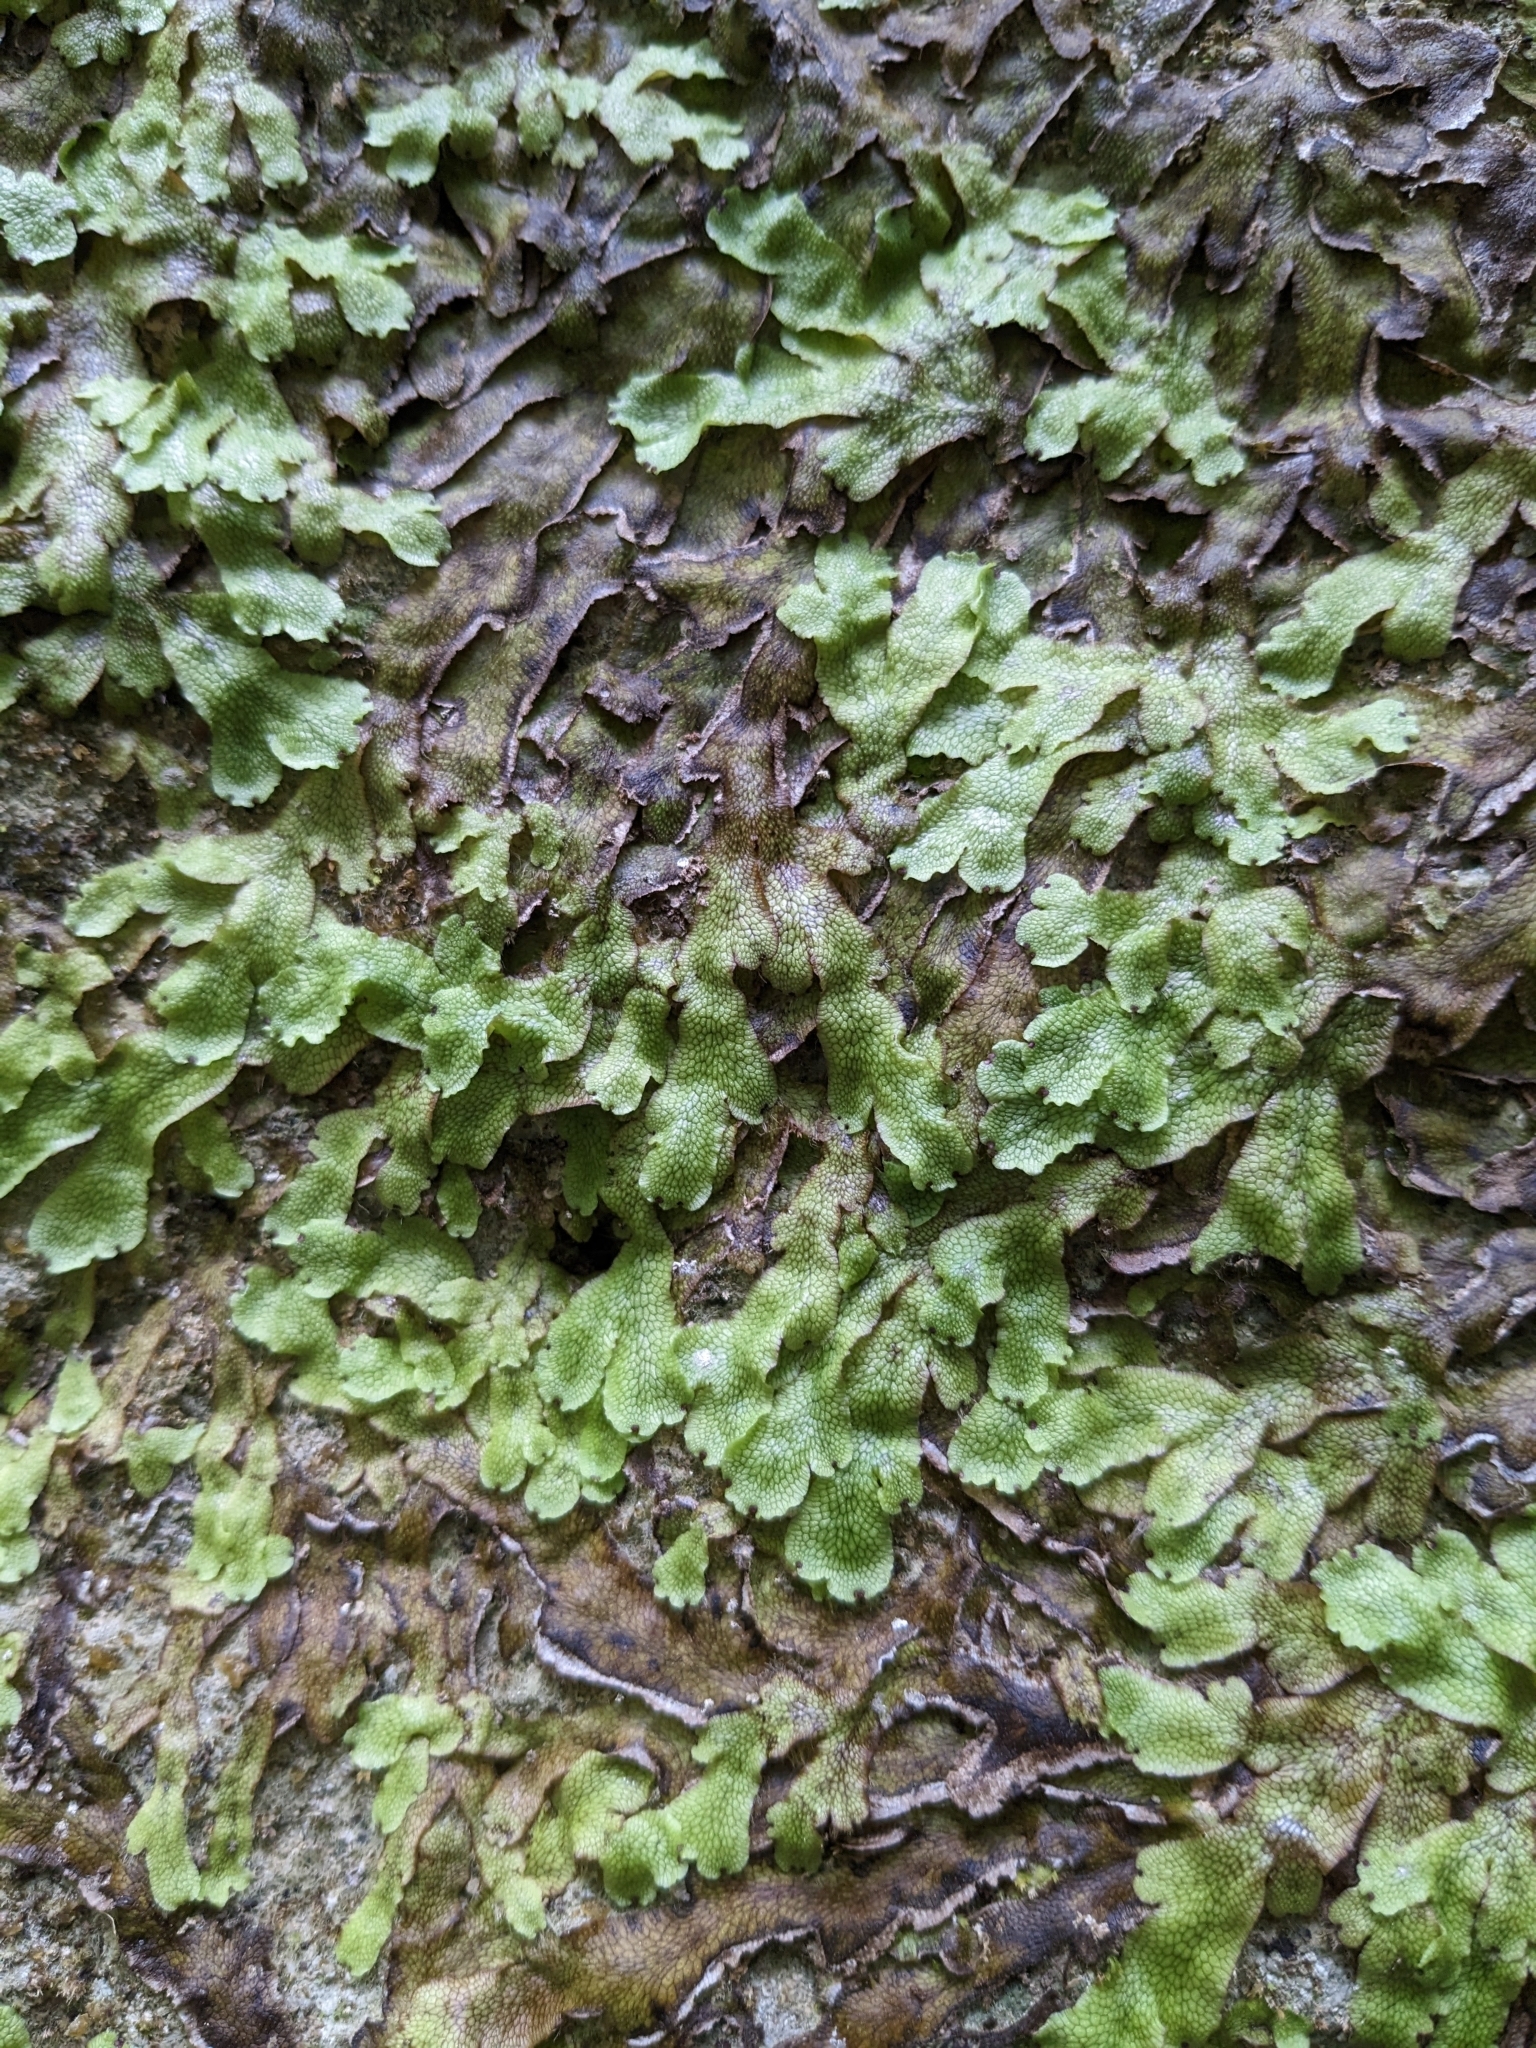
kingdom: Plantae
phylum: Marchantiophyta
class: Marchantiopsida
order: Marchantiales
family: Conocephalaceae
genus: Conocephalum
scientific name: Conocephalum salebrosum
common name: Cat-tongue liverwort
